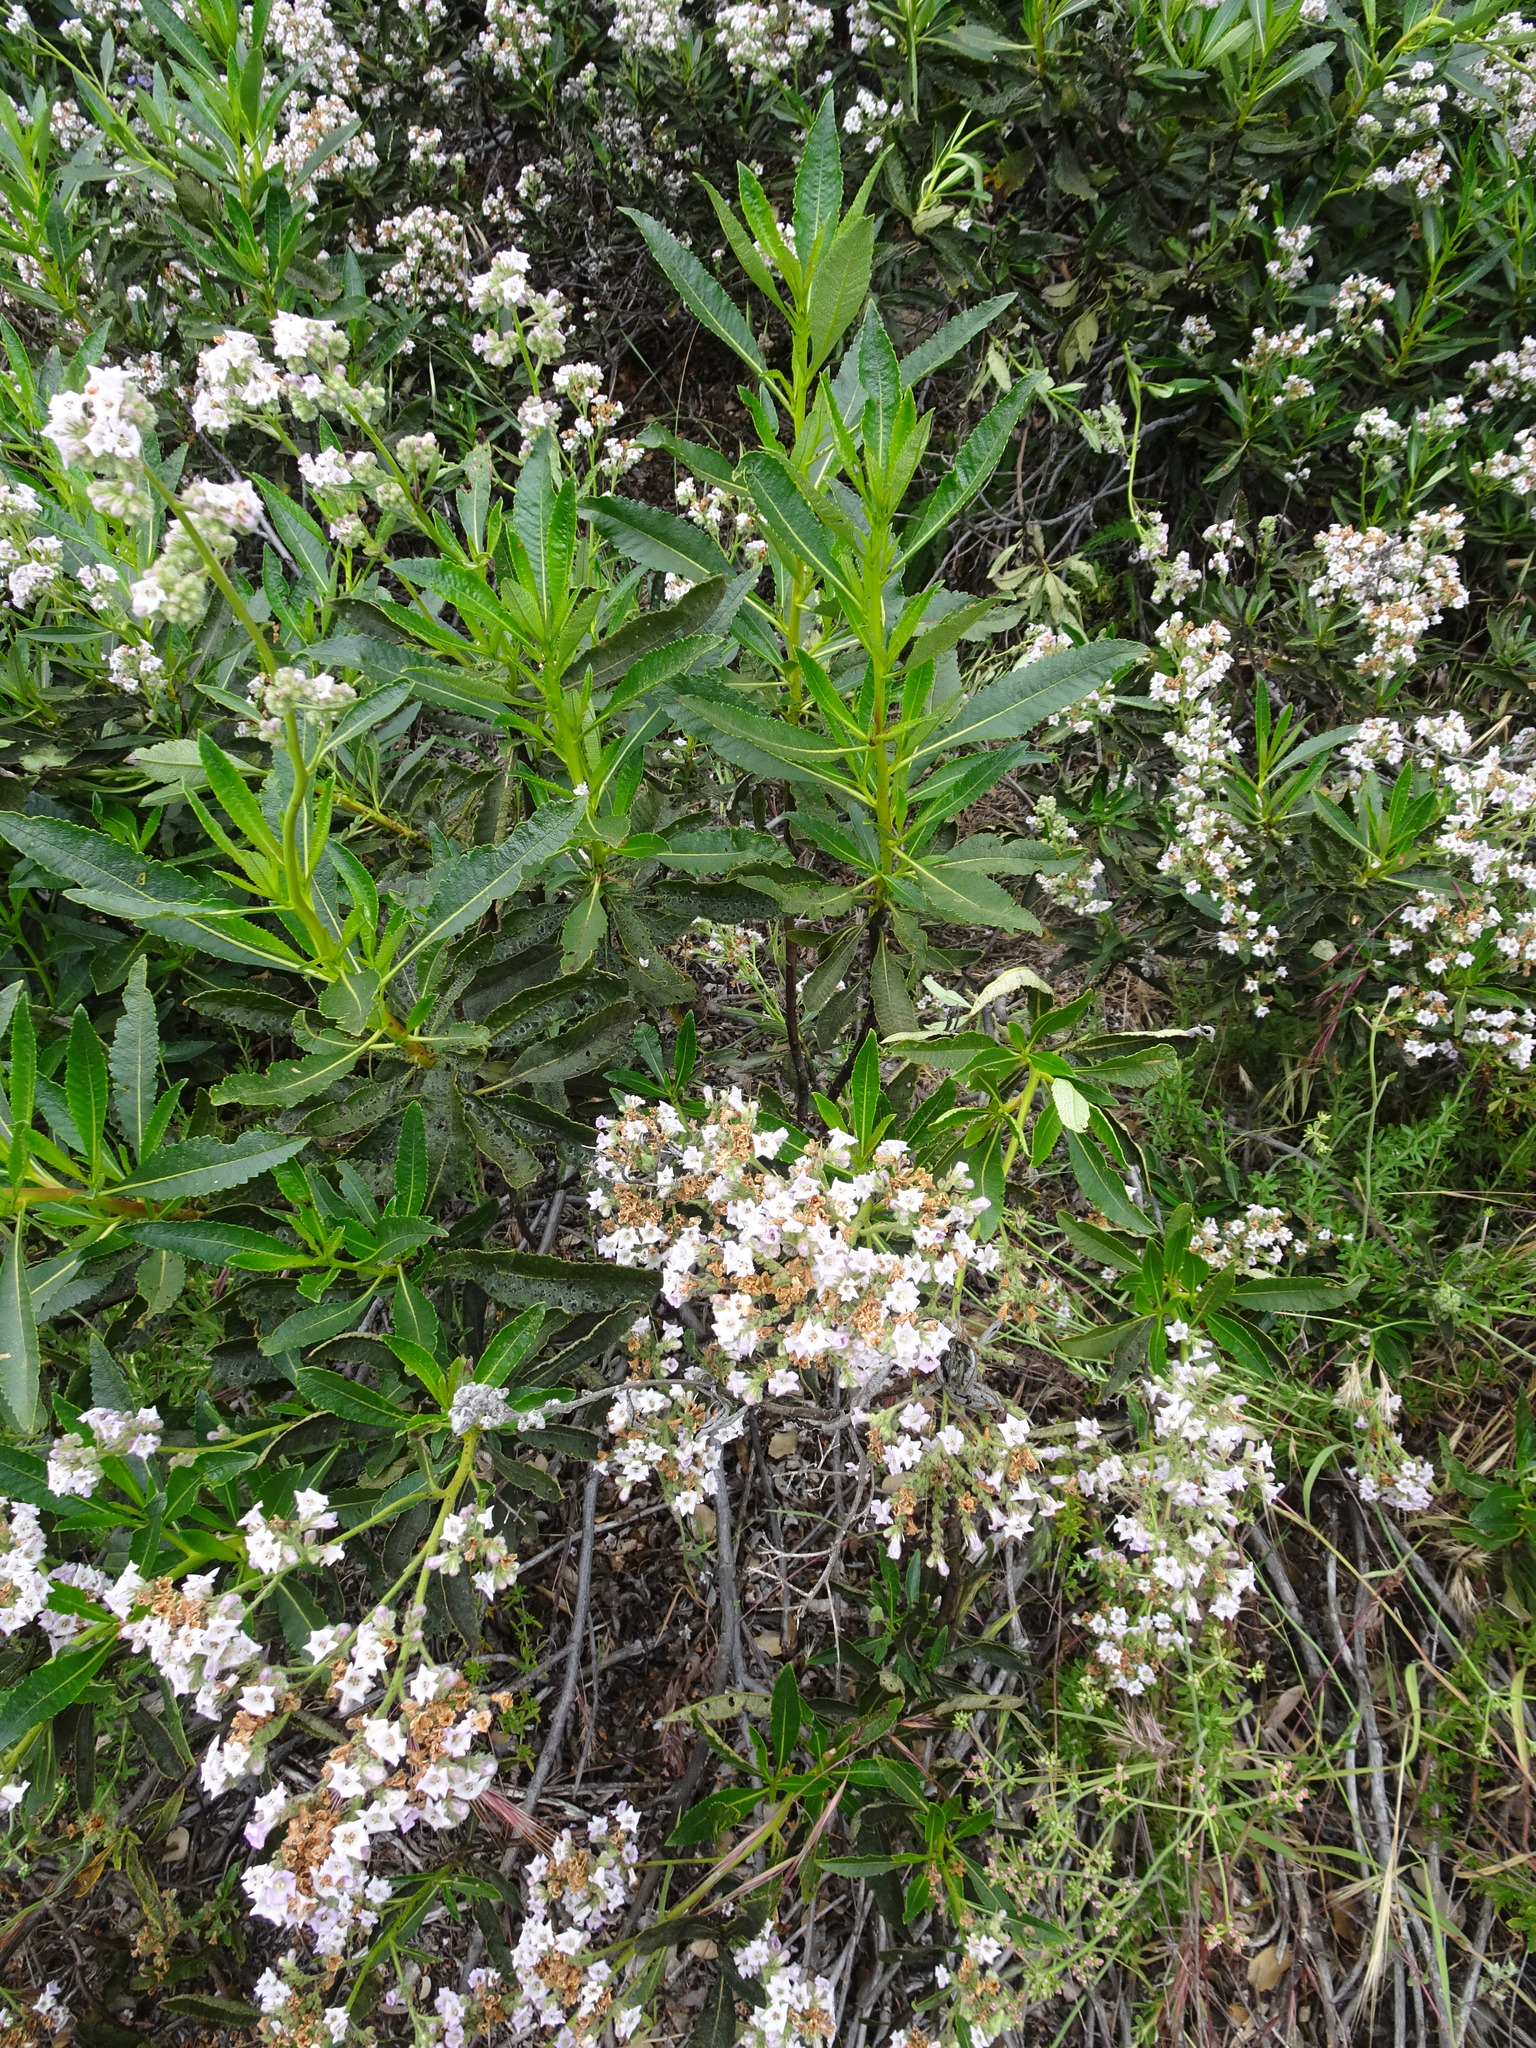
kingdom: Plantae
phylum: Tracheophyta
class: Magnoliopsida
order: Boraginales
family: Namaceae
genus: Eriodictyon
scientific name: Eriodictyon trichocalyx
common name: Hairy yerba-santa
